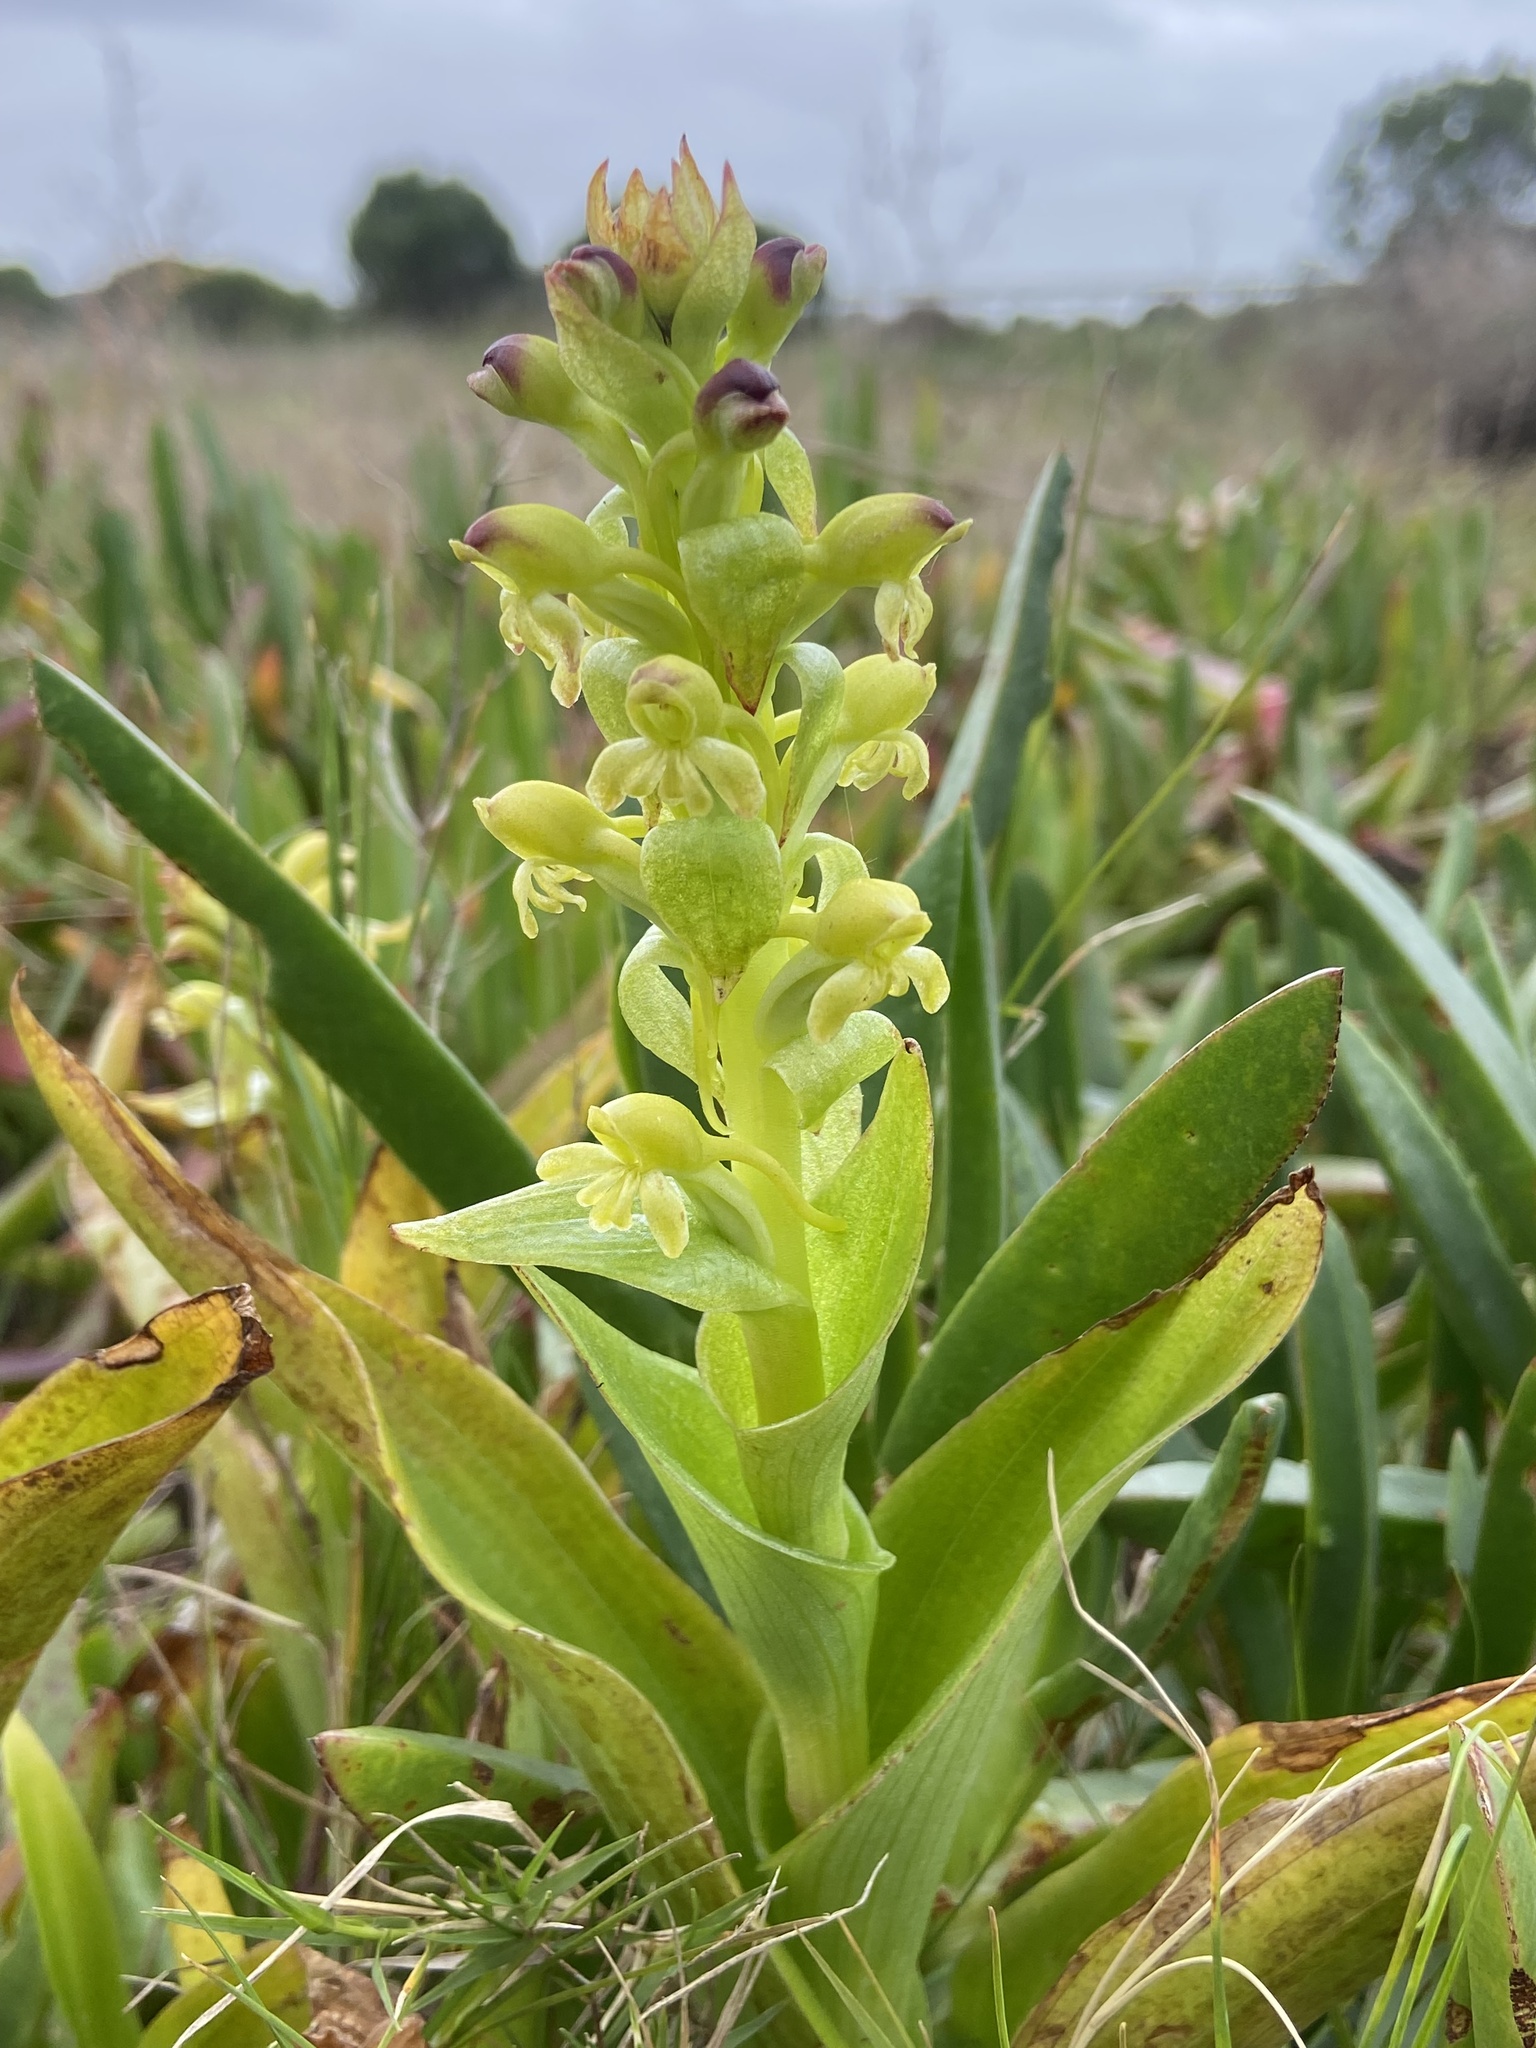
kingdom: Plantae
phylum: Tracheophyta
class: Liliopsida
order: Asparagales
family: Orchidaceae
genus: Satyrium
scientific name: Satyrium odorum
